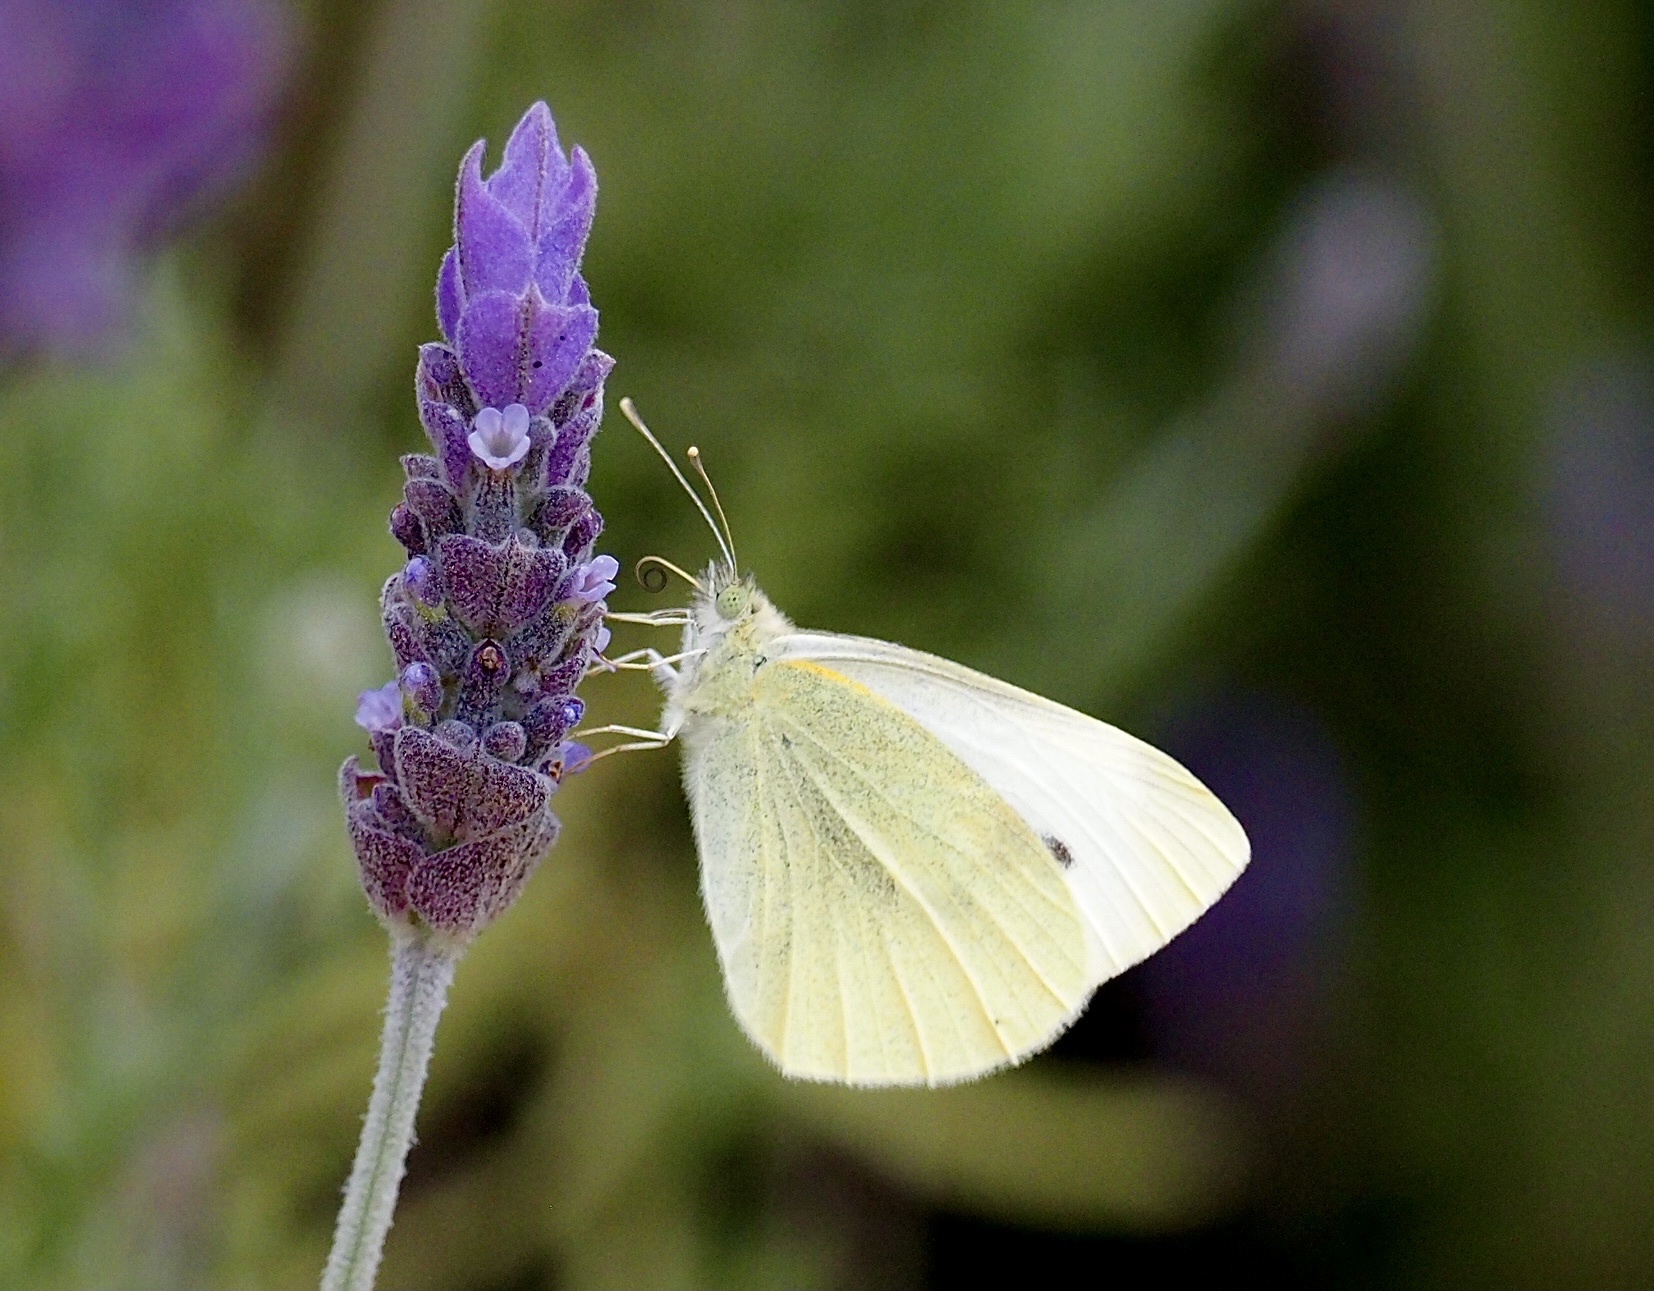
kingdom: Animalia
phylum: Arthropoda
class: Insecta
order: Lepidoptera
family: Pieridae
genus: Pieris
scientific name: Pieris rapae
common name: Small white
